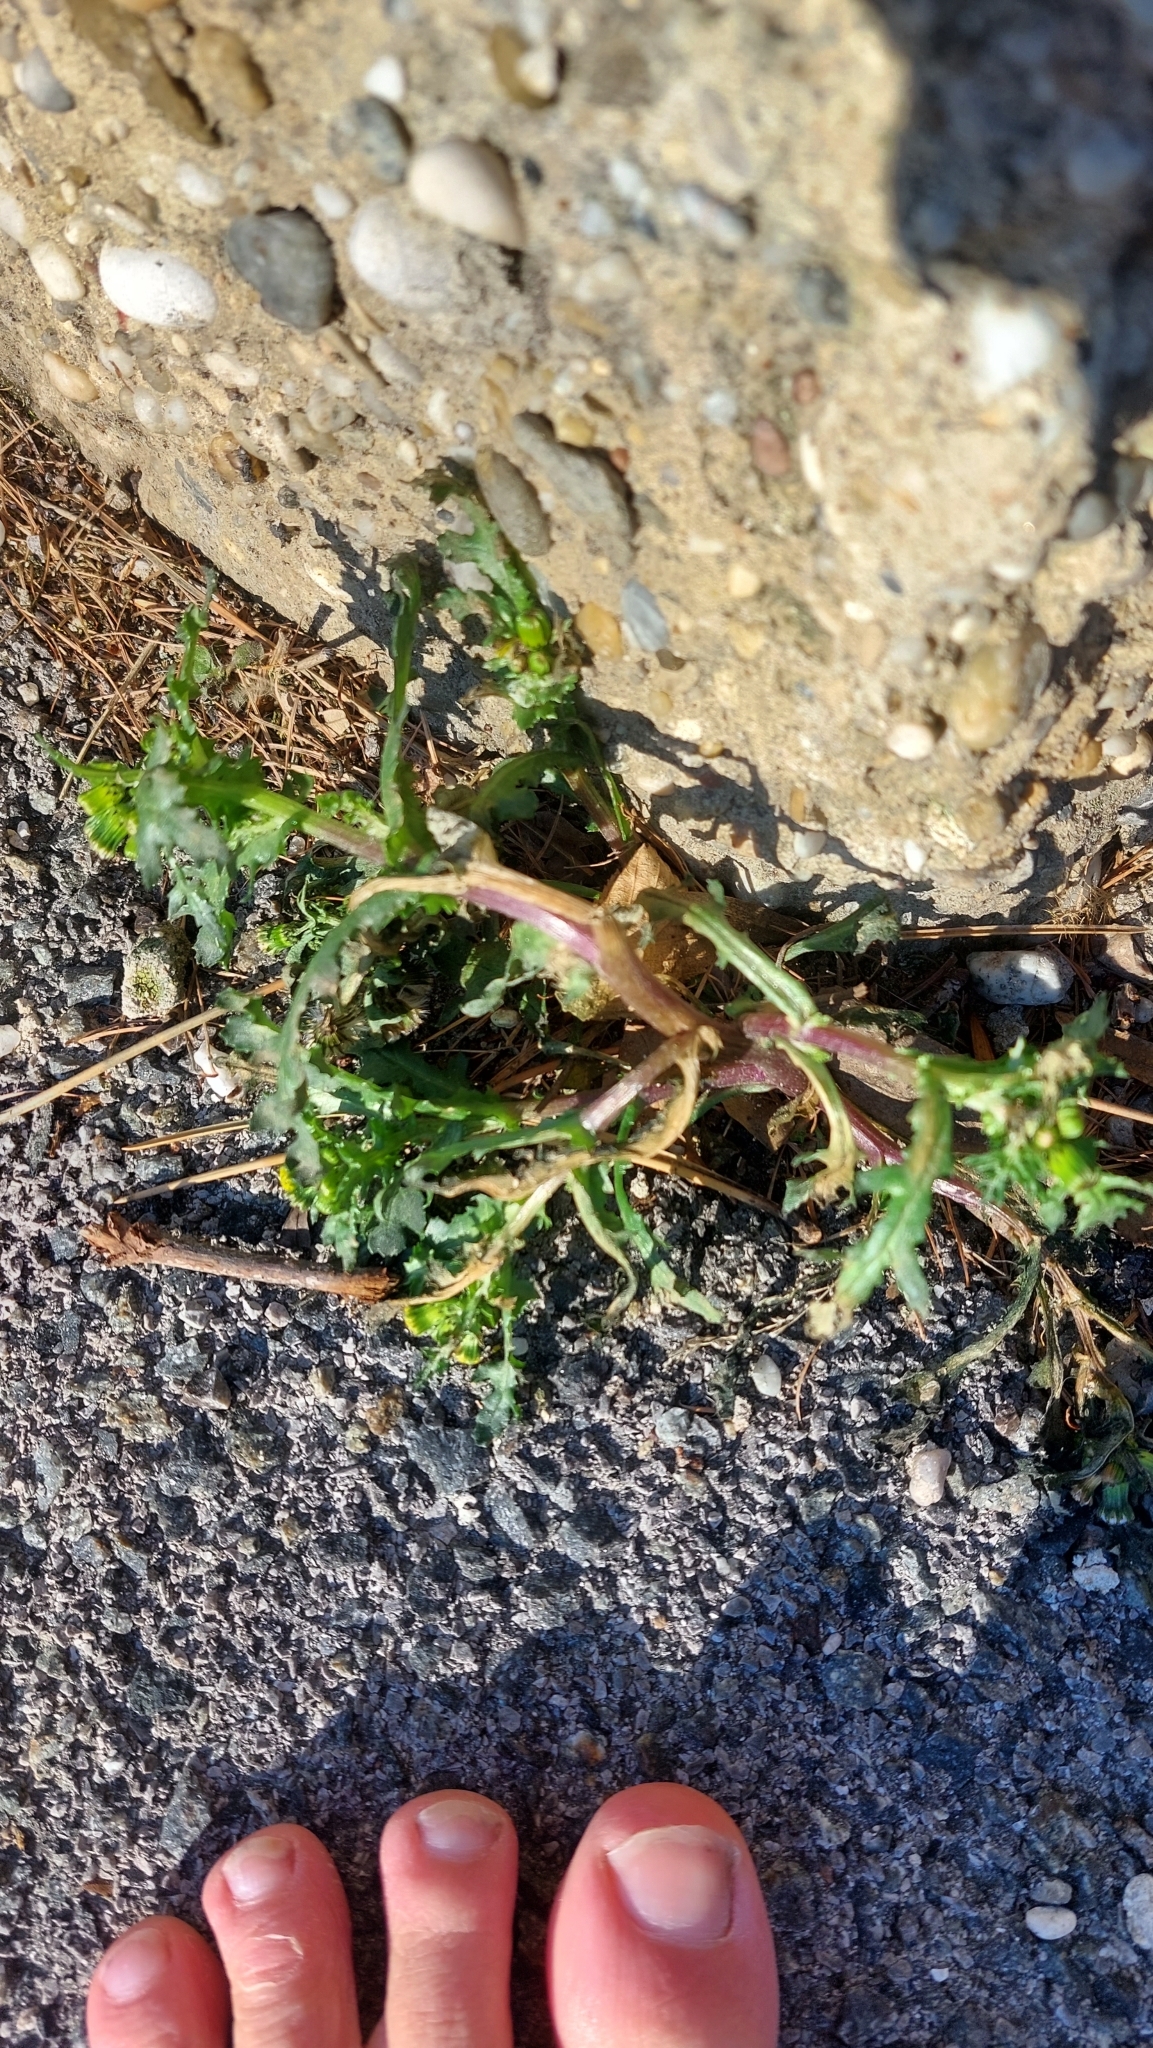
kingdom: Plantae
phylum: Tracheophyta
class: Magnoliopsida
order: Asterales
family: Asteraceae
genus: Senecio
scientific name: Senecio vulgaris
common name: Old-man-in-the-spring
